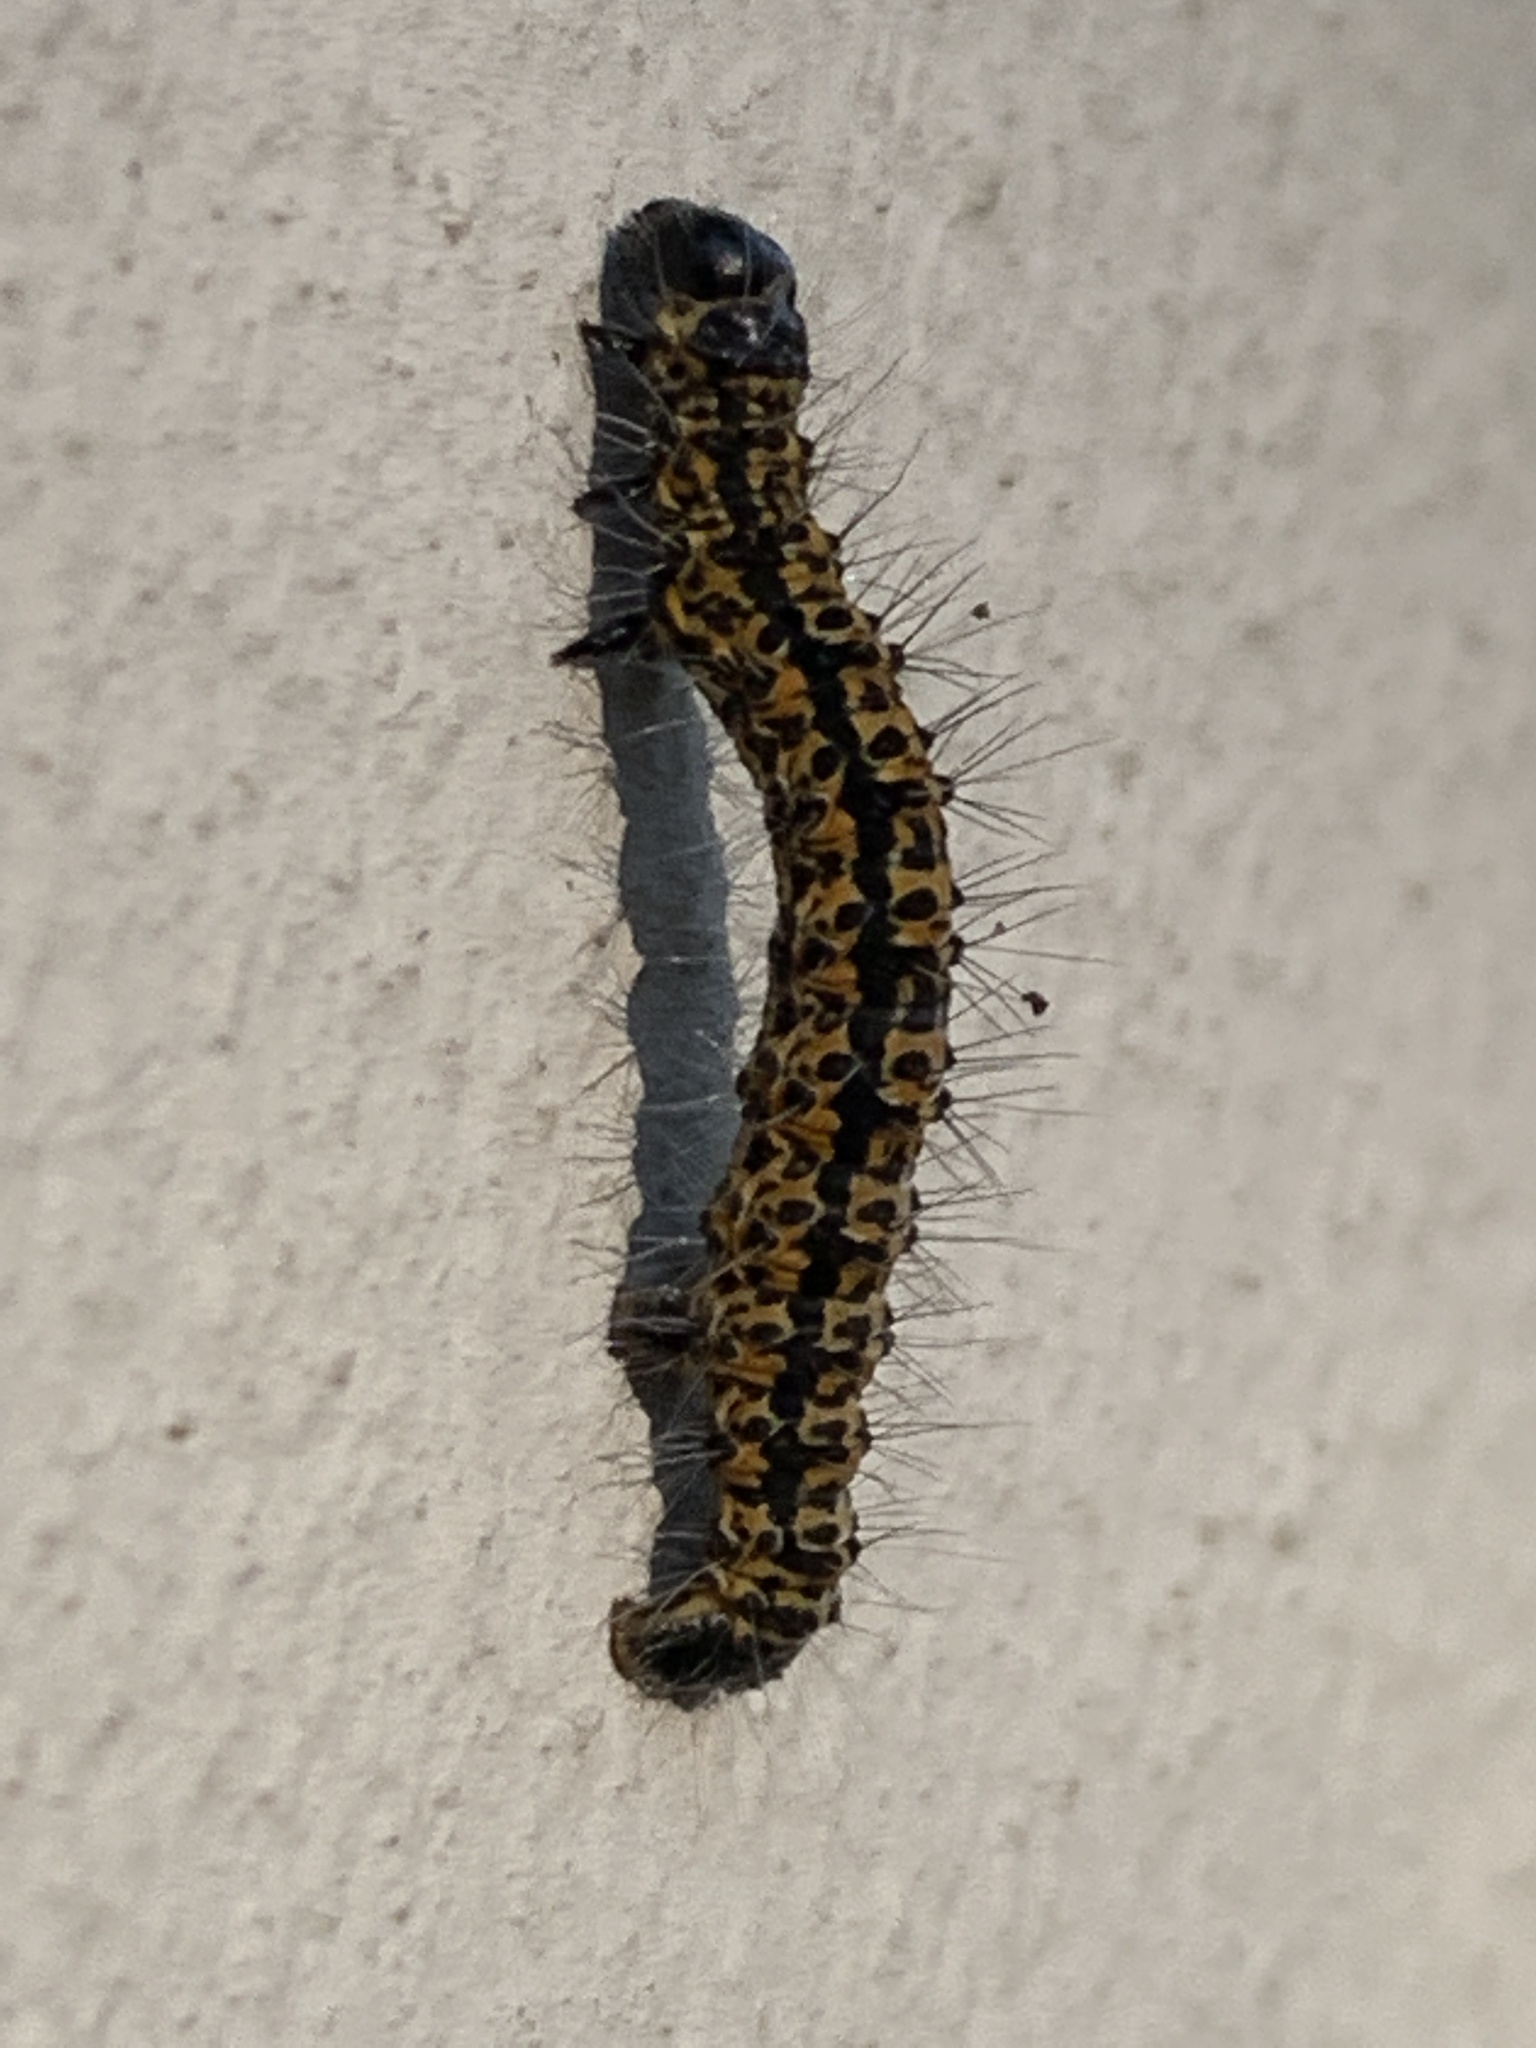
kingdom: Animalia
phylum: Arthropoda
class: Insecta
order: Lepidoptera
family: Geometridae
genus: Zerenopsis
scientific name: Zerenopsis lepida
